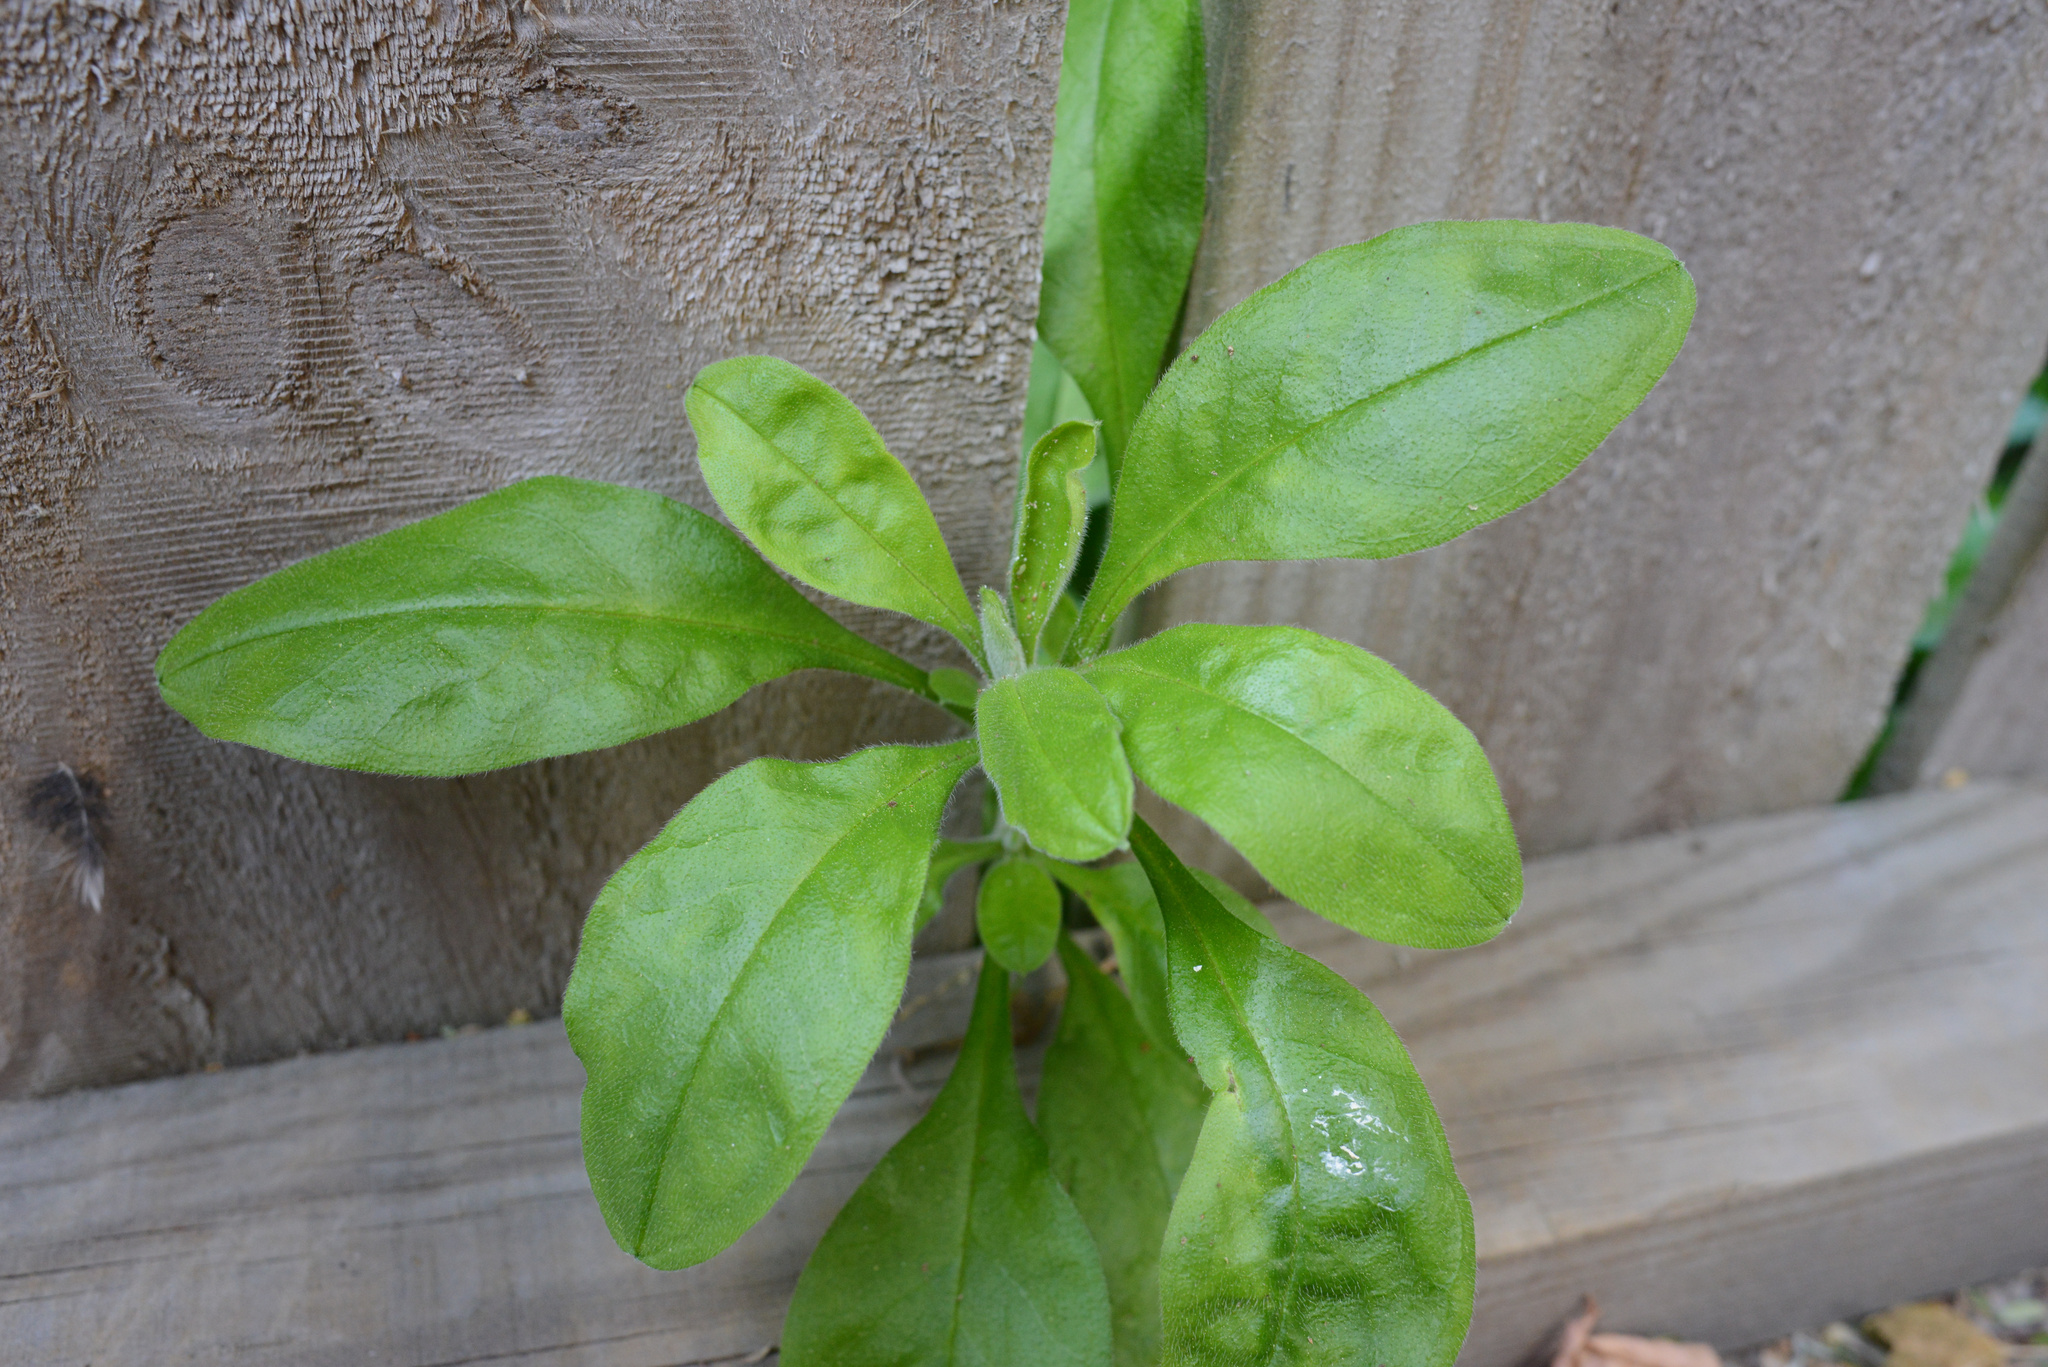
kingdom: Plantae
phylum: Tracheophyta
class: Magnoliopsida
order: Boraginales
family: Boraginaceae
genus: Myosotis
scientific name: Myosotis sylvatica
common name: Wood forget-me-not
